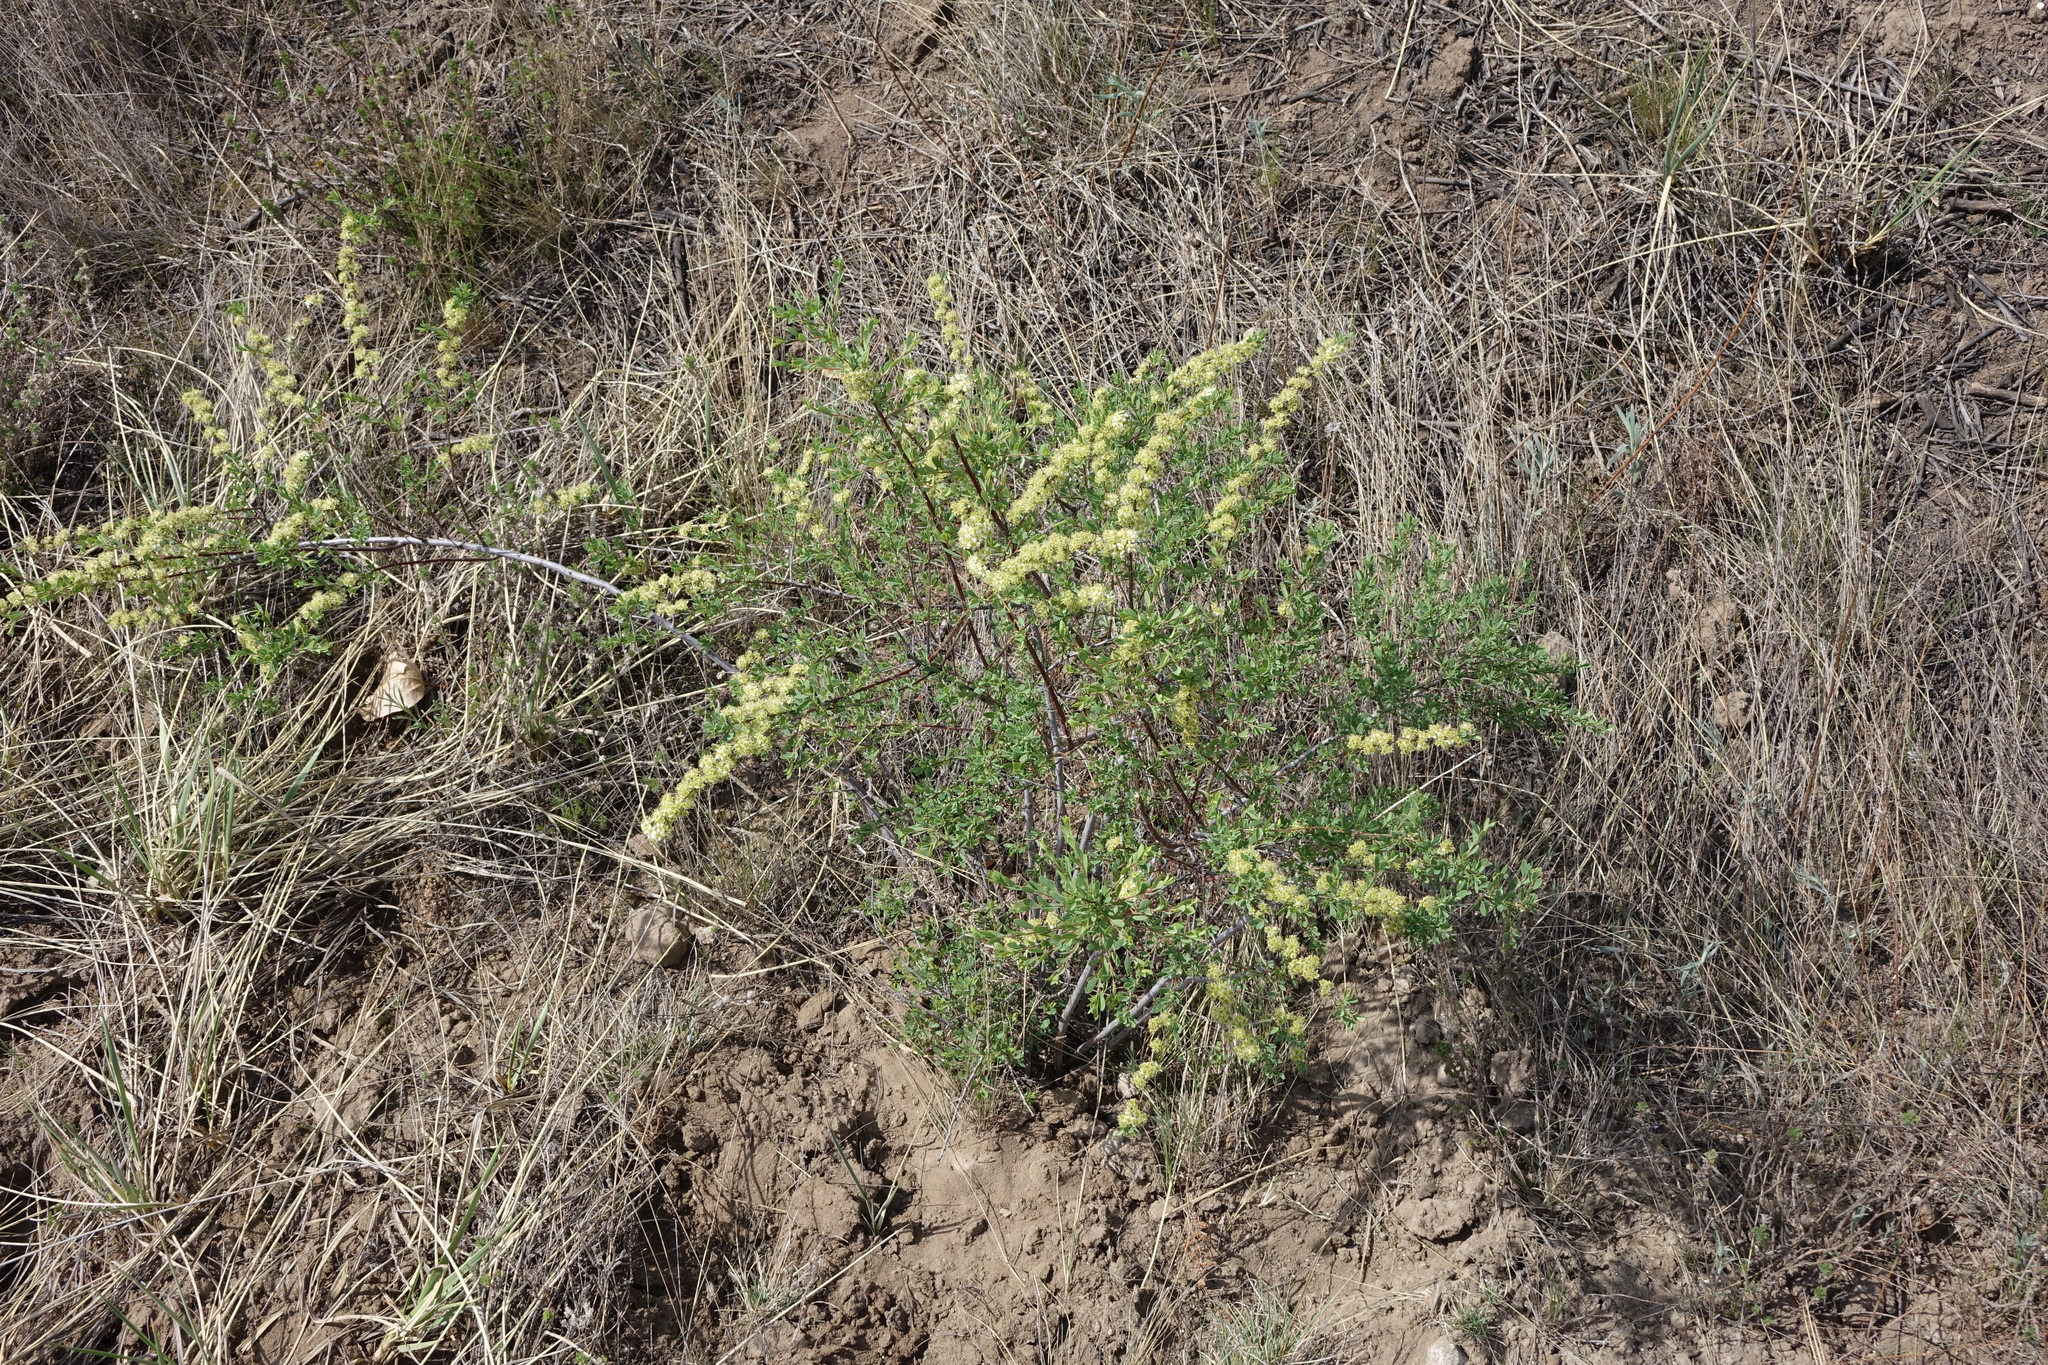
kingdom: Plantae
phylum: Tracheophyta
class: Magnoliopsida
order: Rosales
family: Rosaceae
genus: Spiraea
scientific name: Spiraea hypericifolia
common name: Iberian spirea
